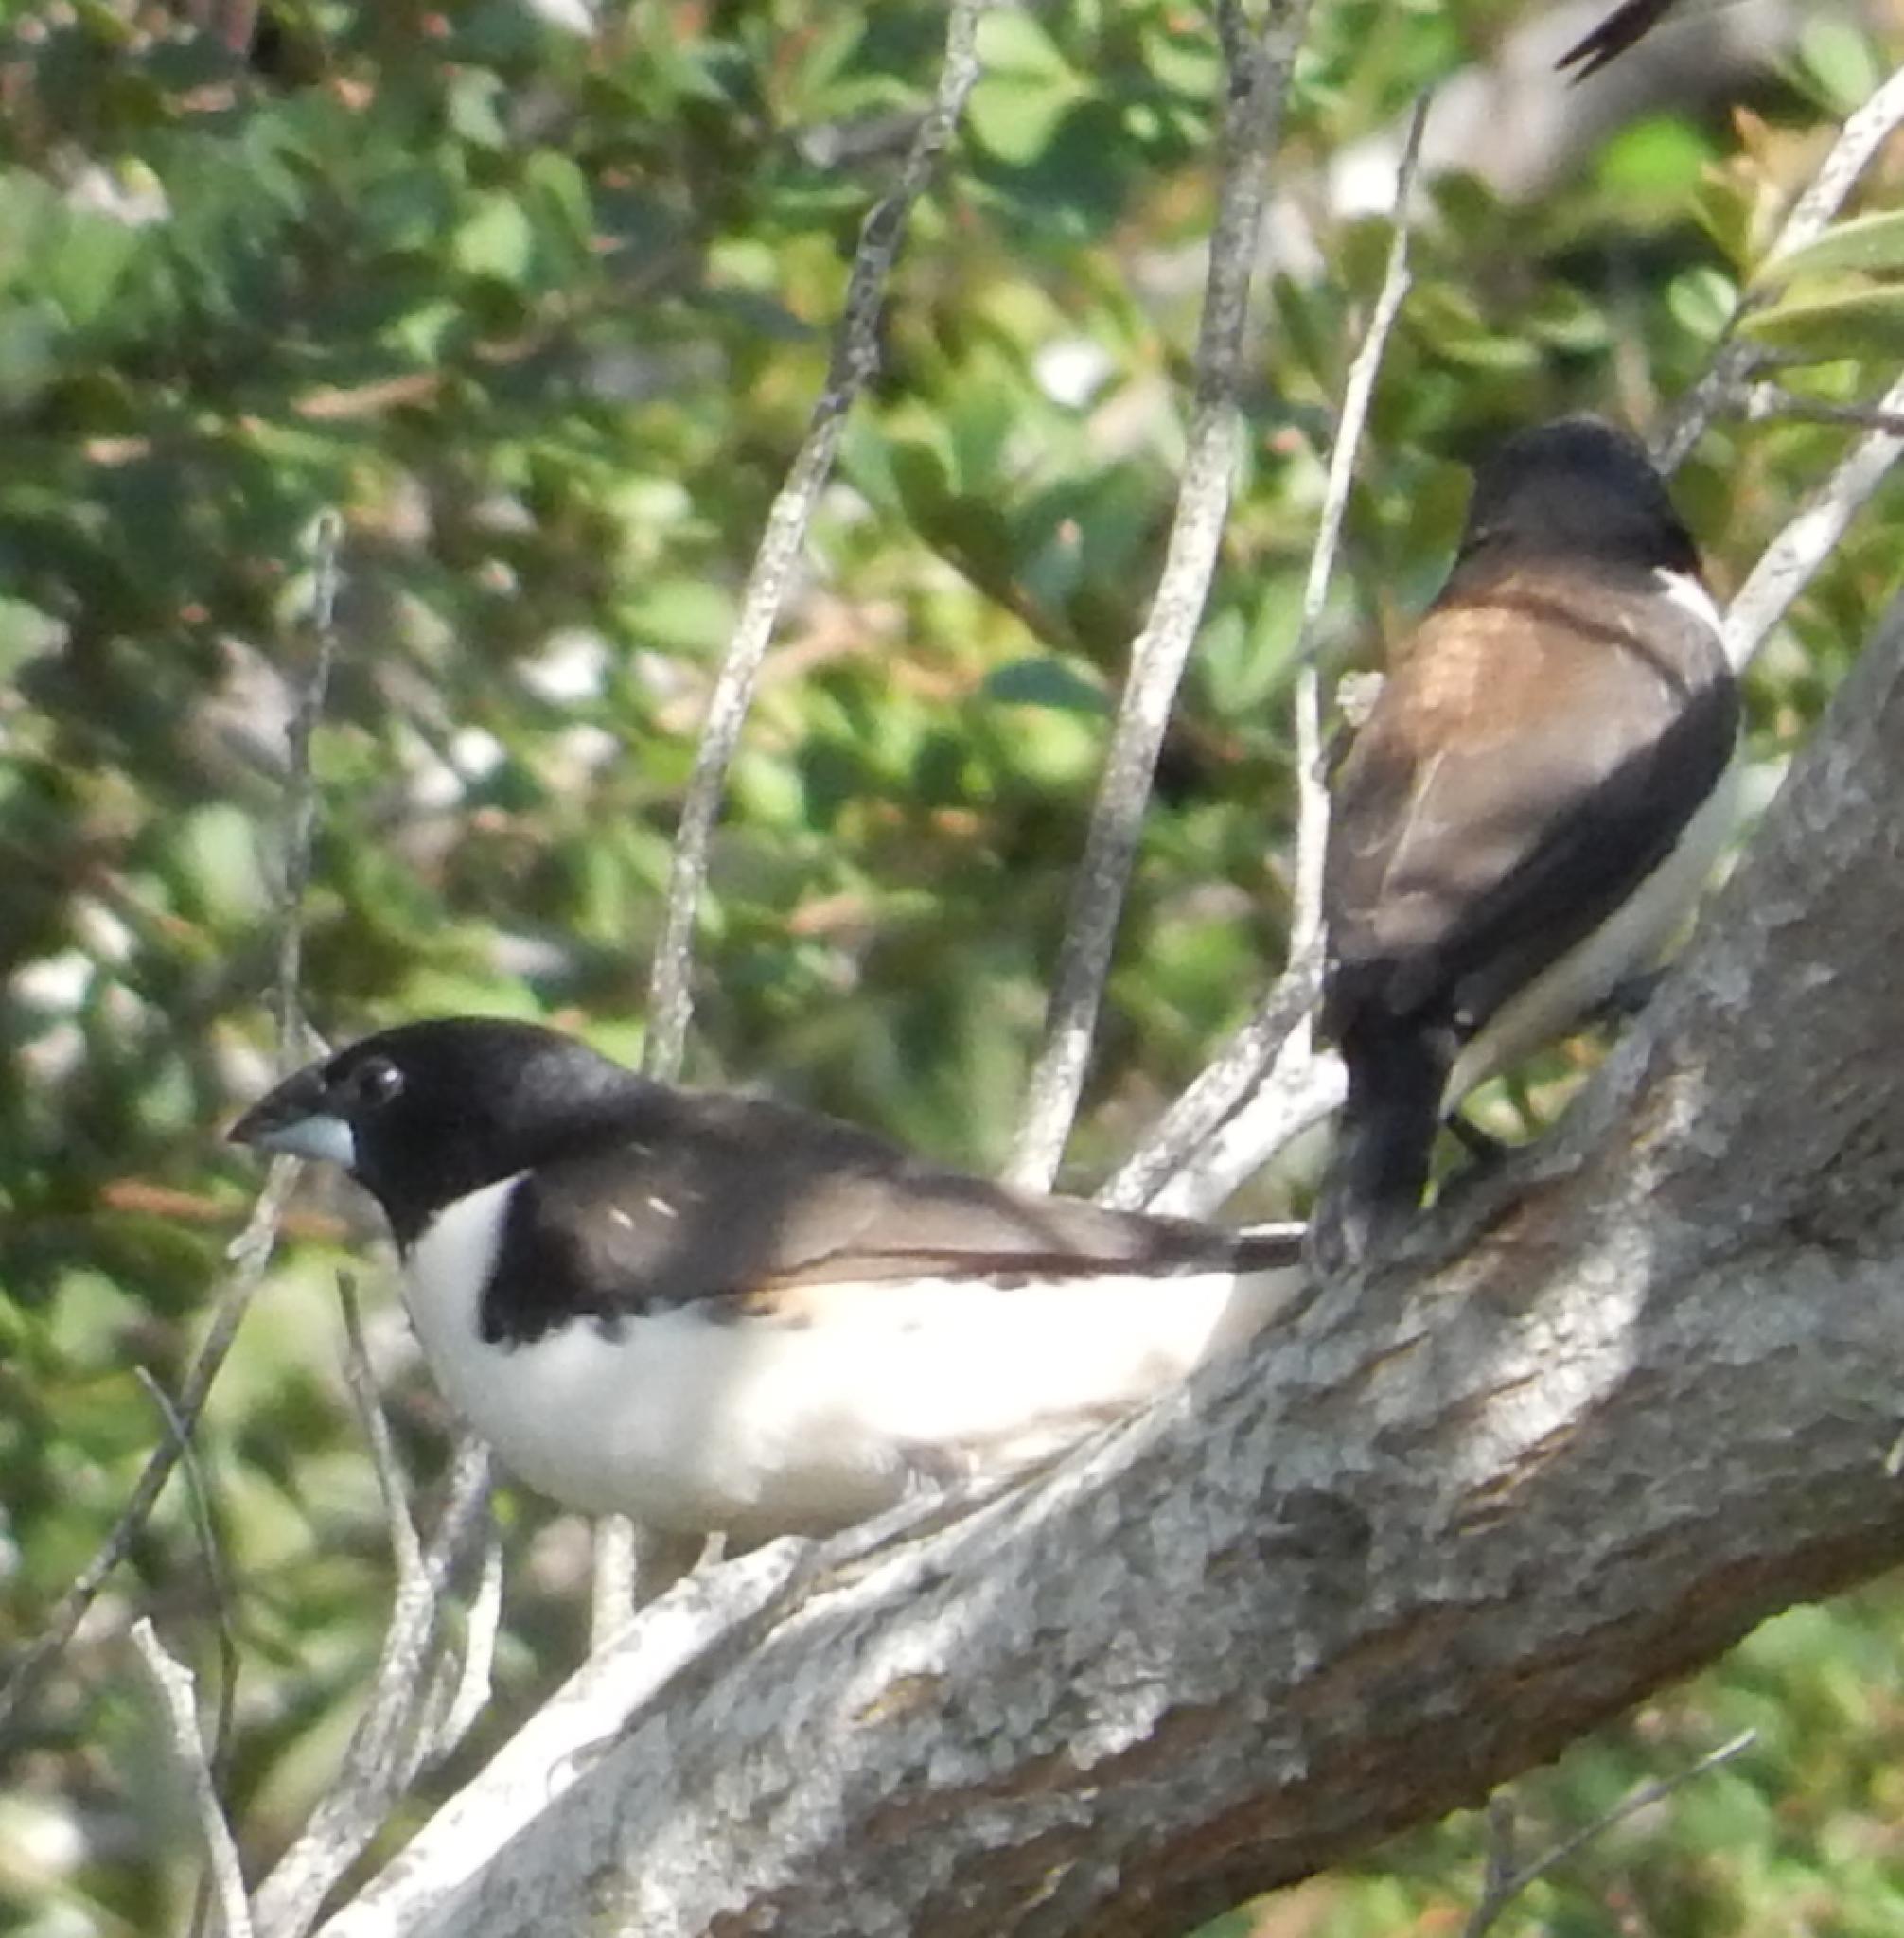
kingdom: Animalia
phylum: Chordata
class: Aves
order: Passeriformes
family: Estrildidae
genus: Lonchura
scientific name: Lonchura fringilloides
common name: Magpie mannikin
